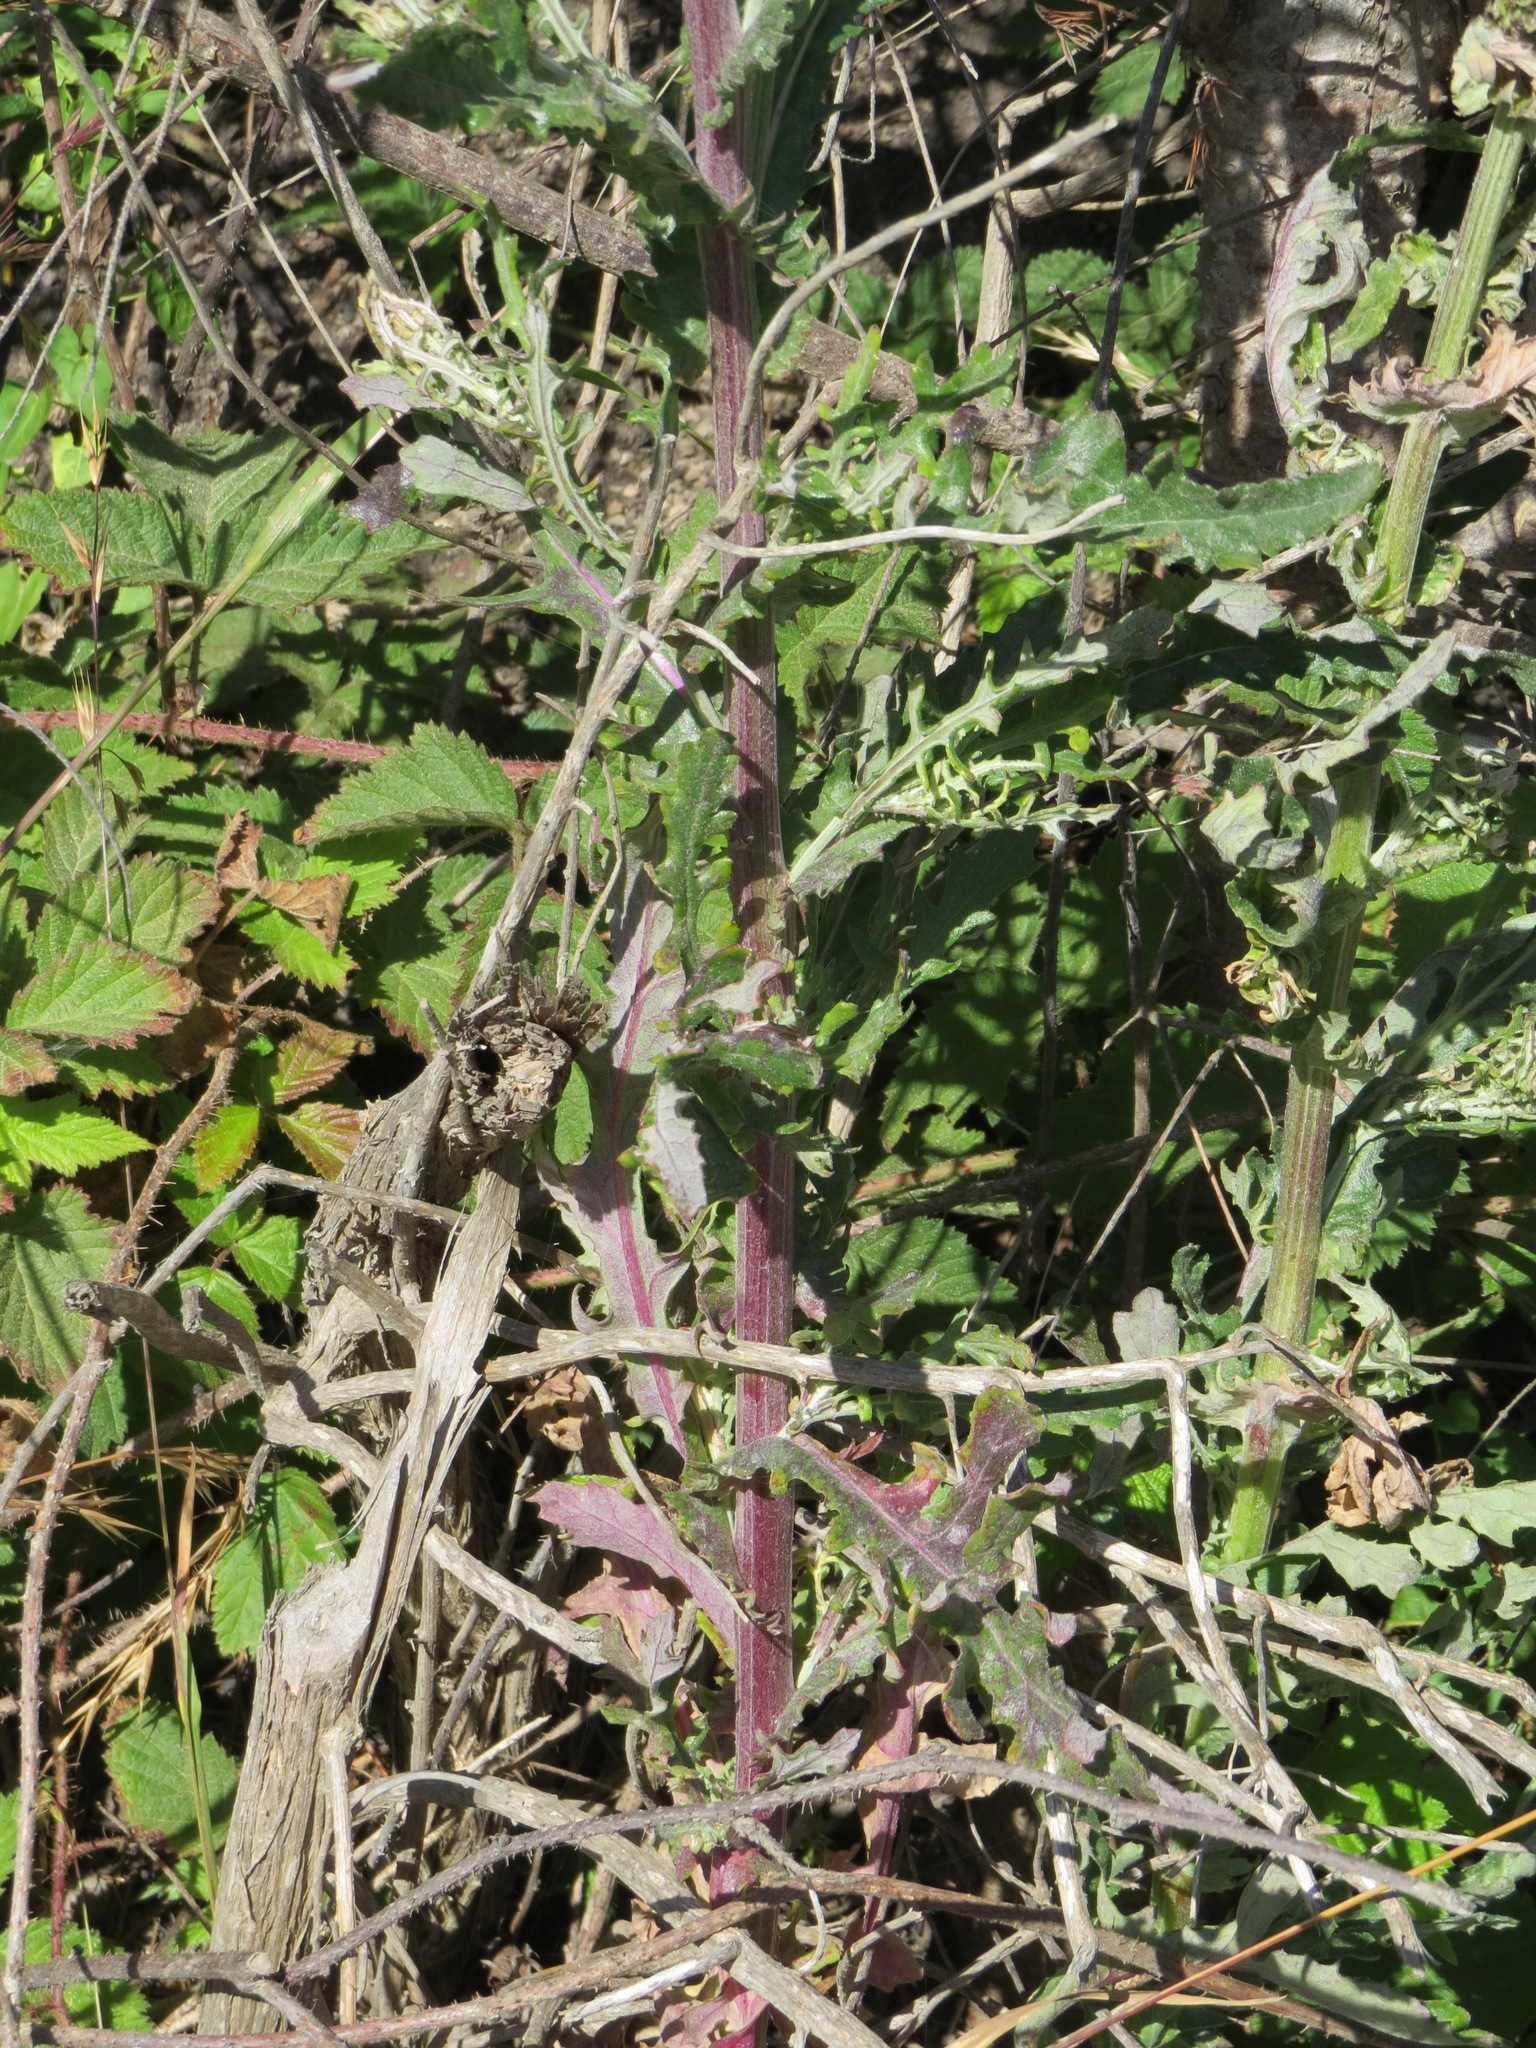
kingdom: Plantae
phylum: Tracheophyta
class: Magnoliopsida
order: Asterales
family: Asteraceae
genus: Senecio
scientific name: Senecio glomeratus
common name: Cutleaf burnweed
